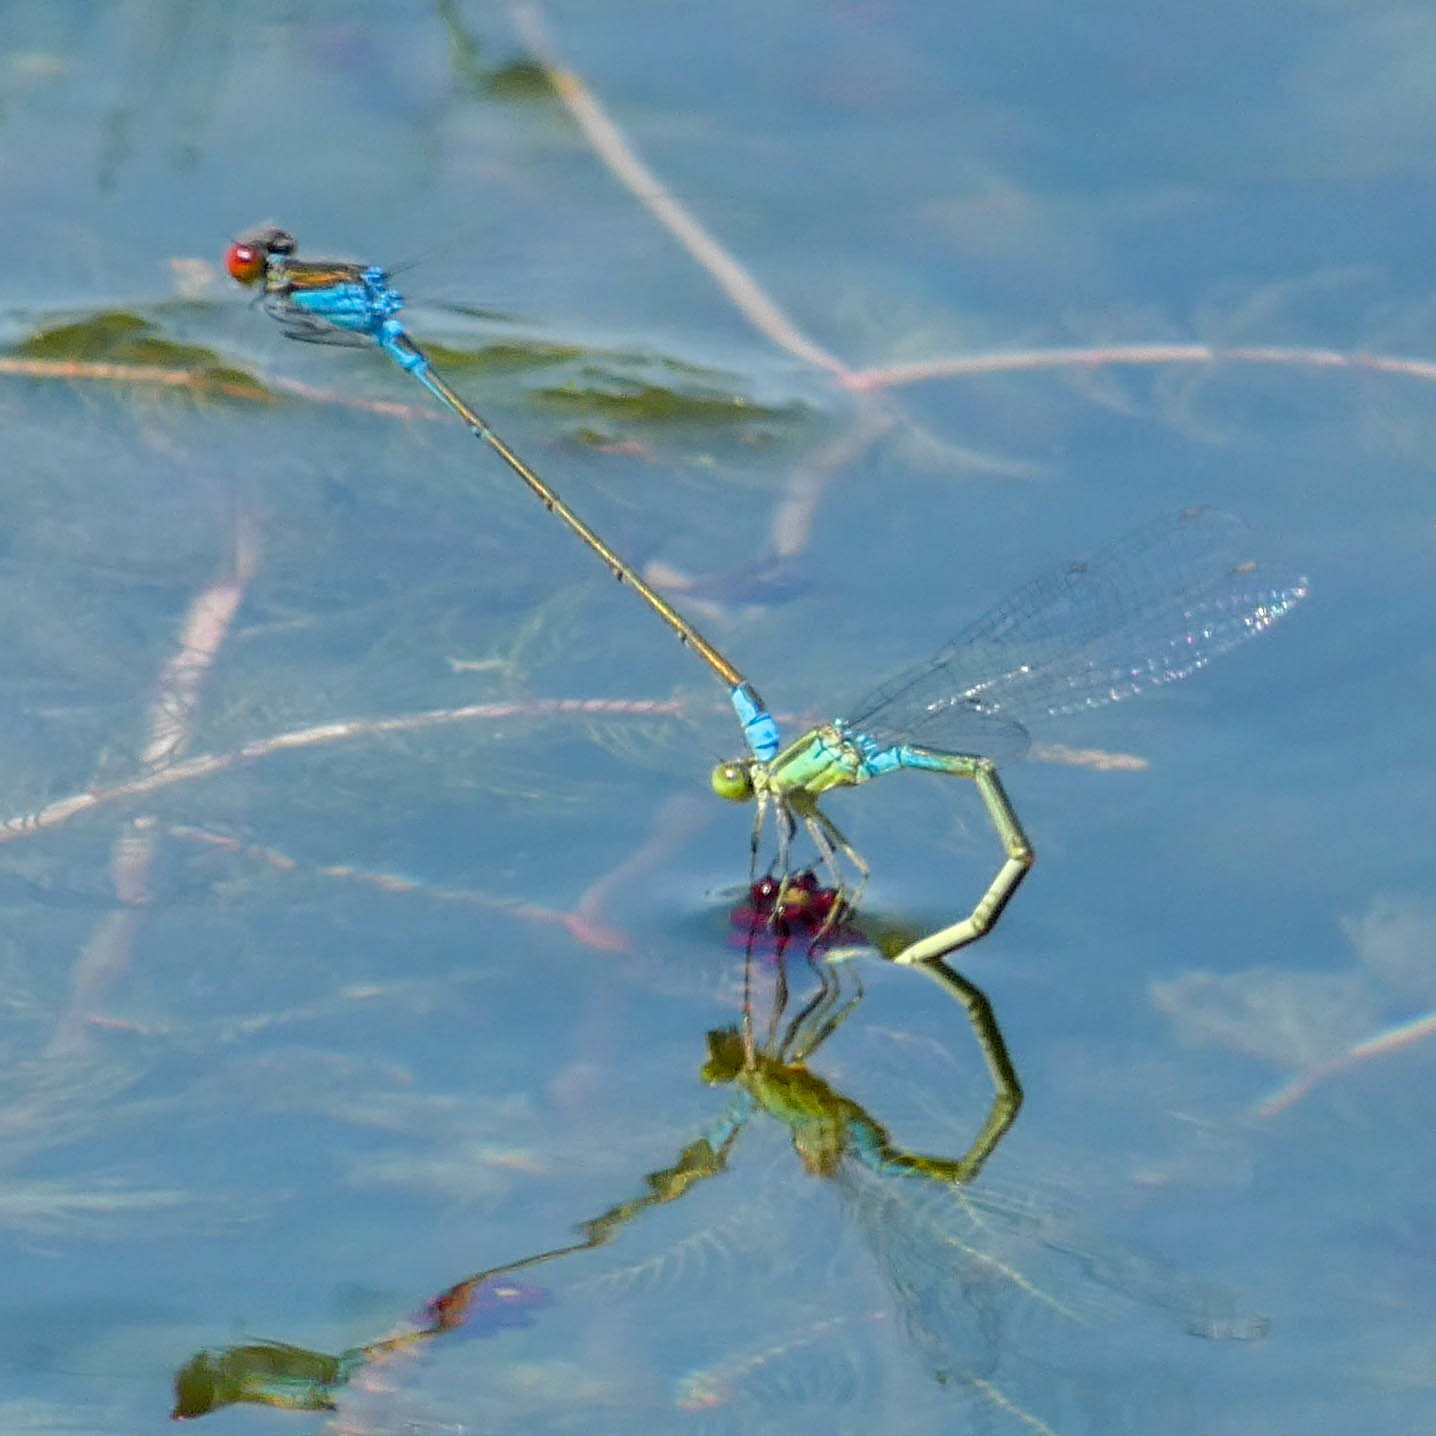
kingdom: Animalia
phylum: Arthropoda
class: Insecta
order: Odonata
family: Coenagrionidae
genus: Erythromma
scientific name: Erythromma viridulum
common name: Small red-eyed damselfly
